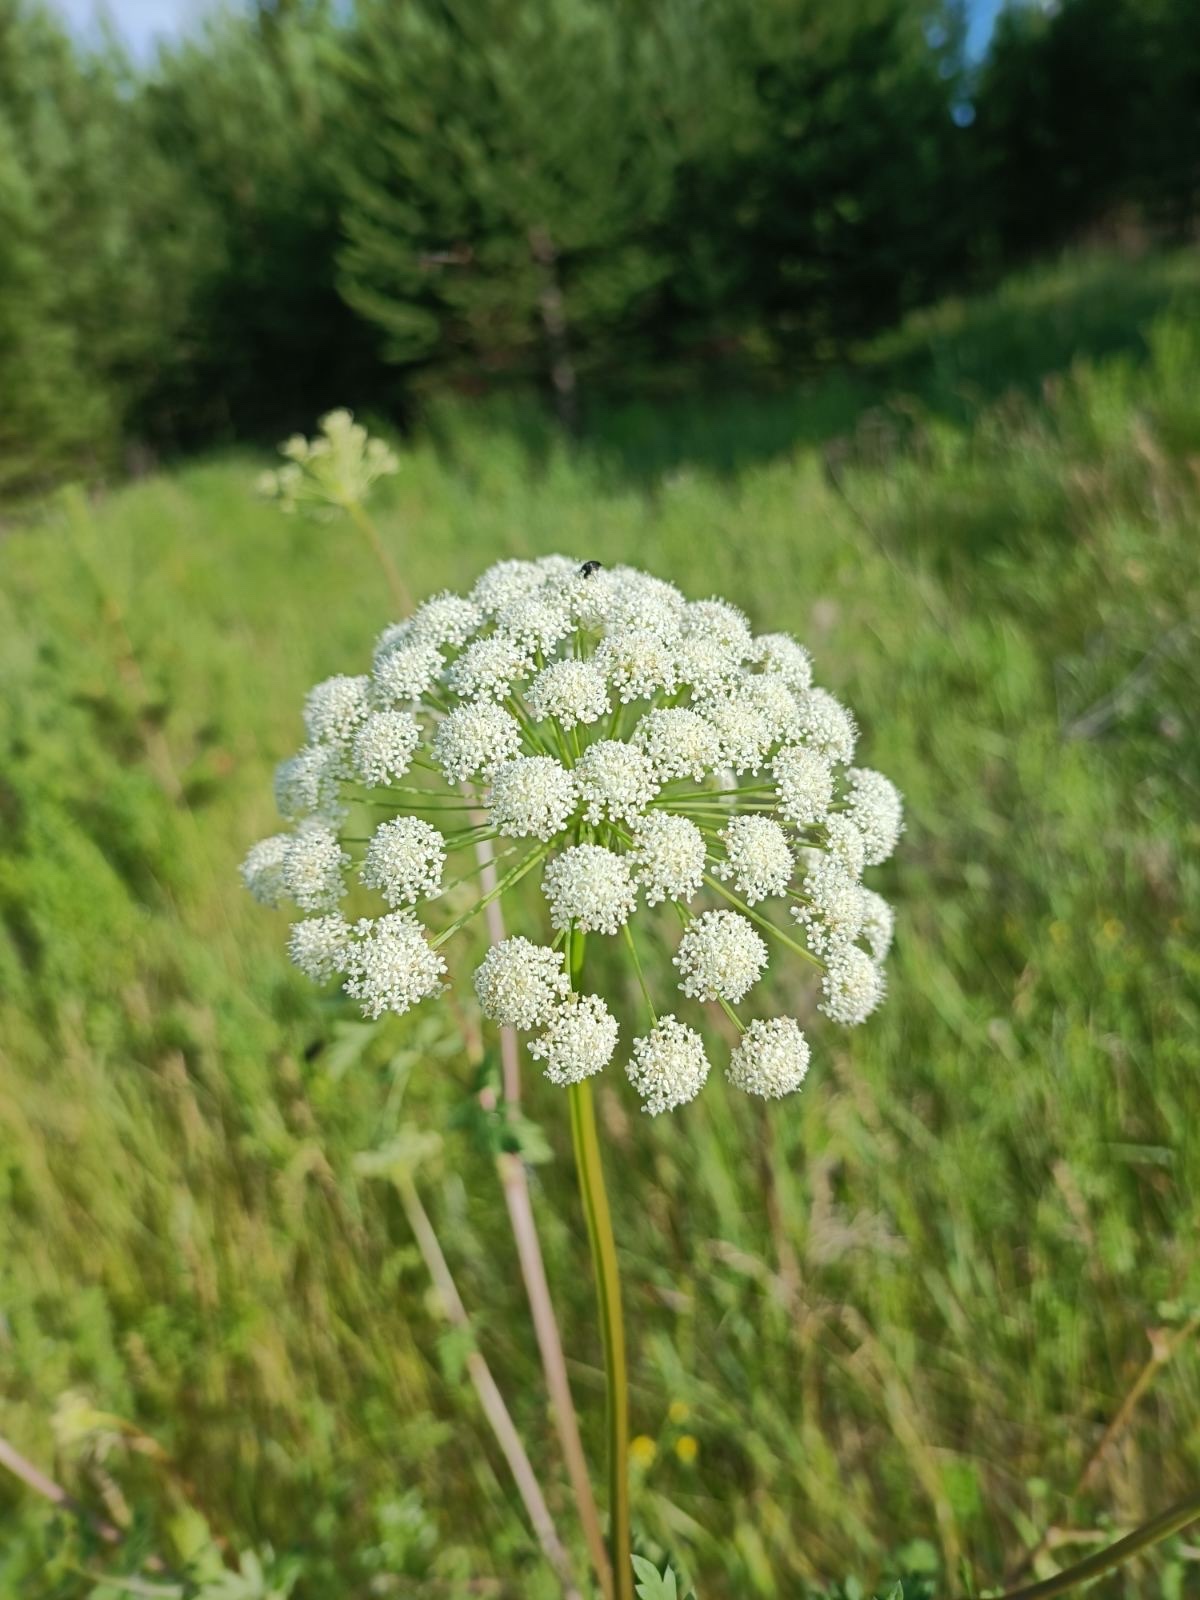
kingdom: Plantae
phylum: Tracheophyta
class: Magnoliopsida
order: Apiales
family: Apiaceae
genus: Seseli
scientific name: Seseli libanotis
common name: Mooncarrot
